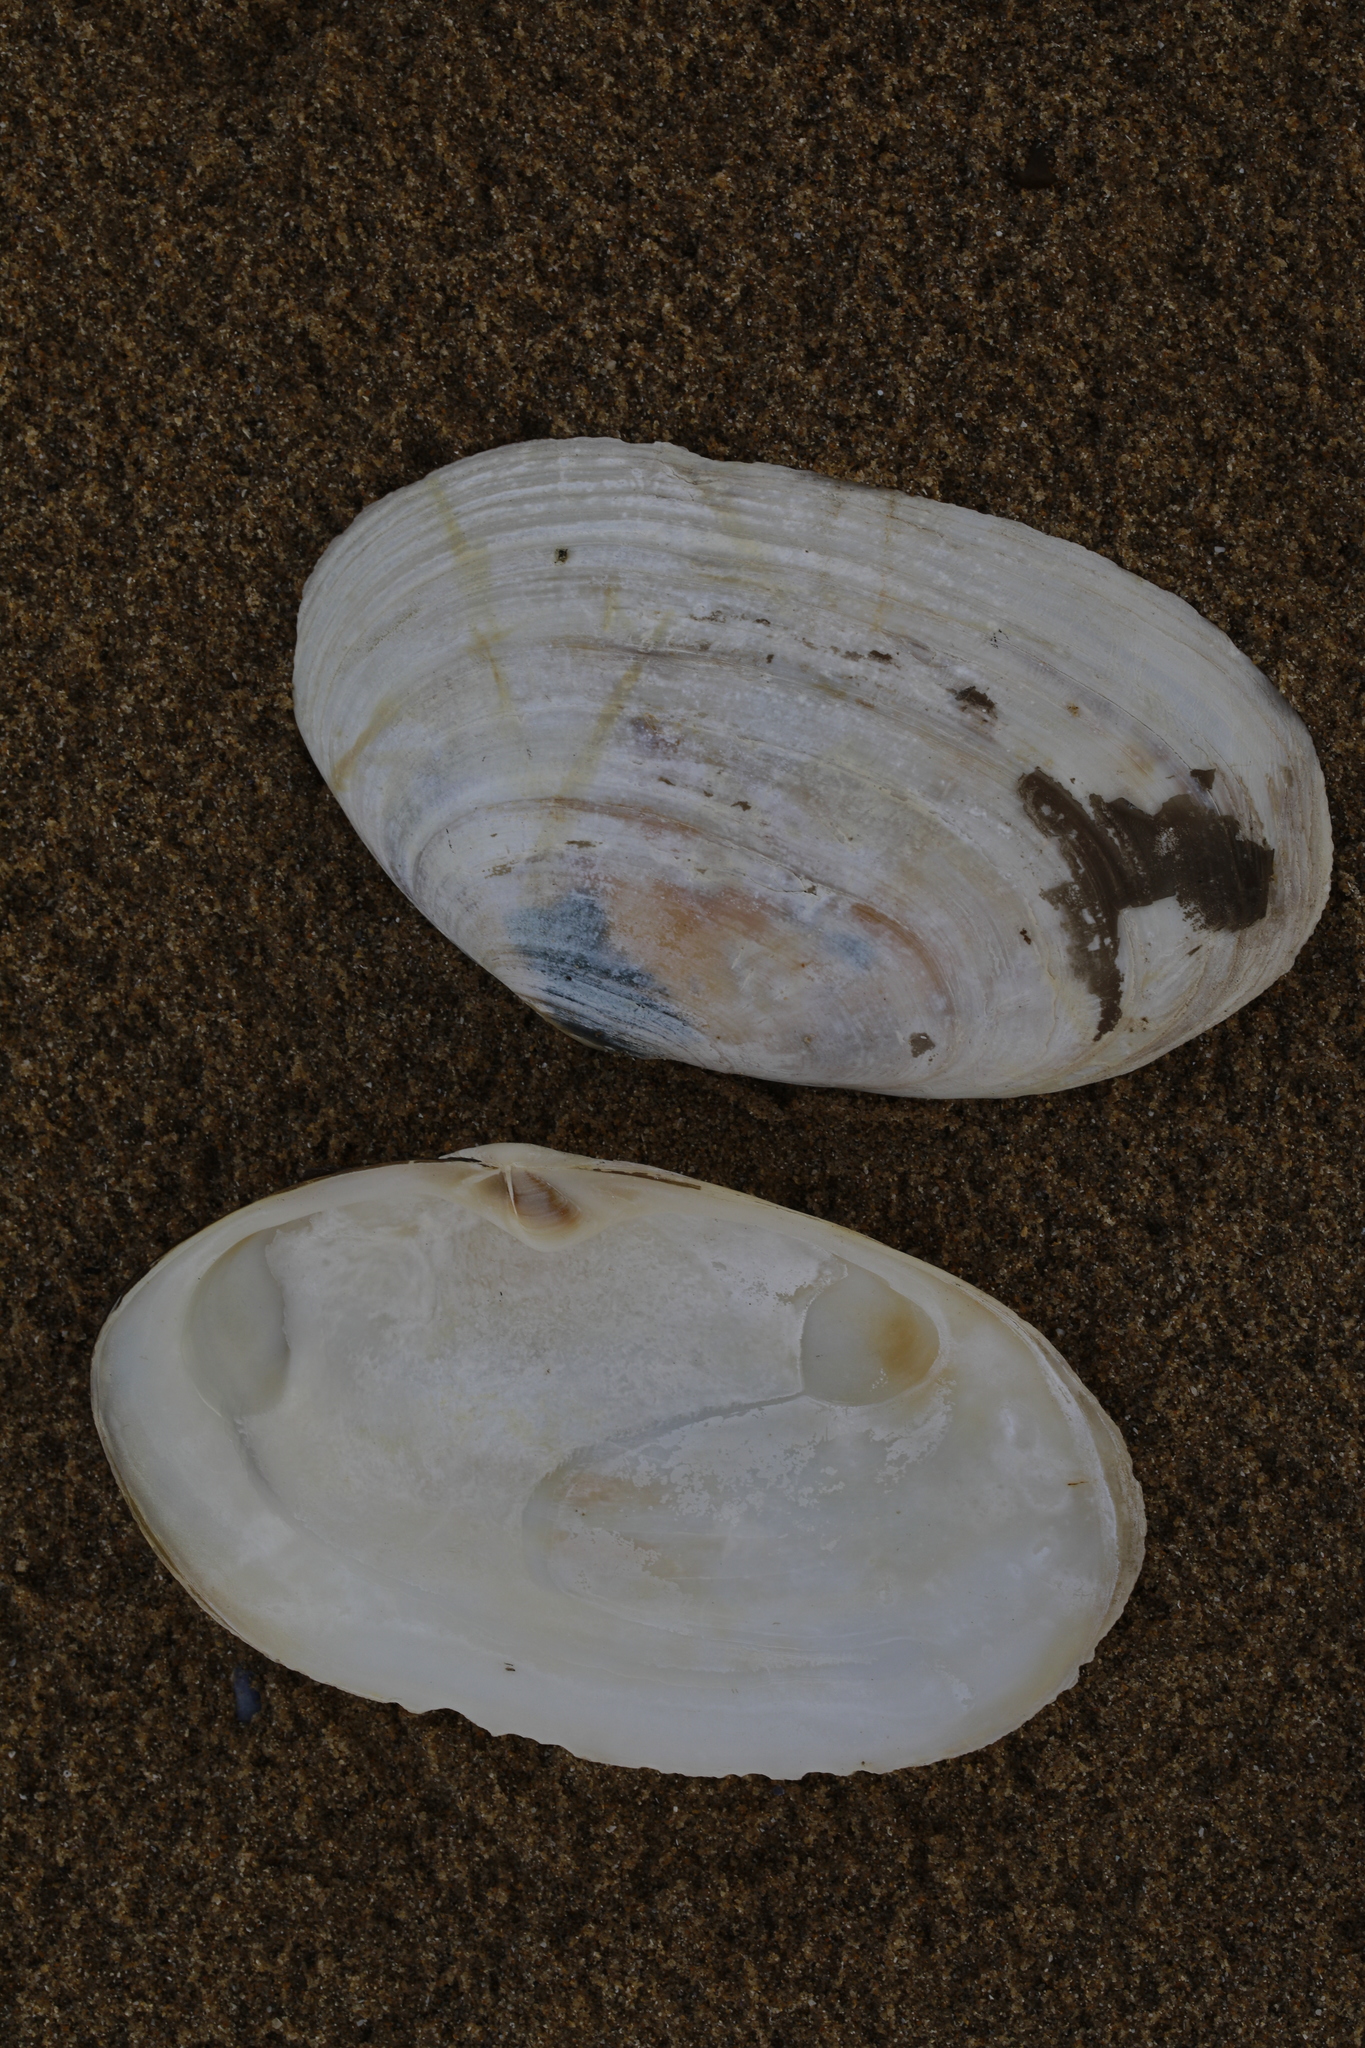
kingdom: Animalia
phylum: Mollusca
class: Bivalvia
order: Venerida
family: Mactridae
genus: Lutraria
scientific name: Lutraria lutraria
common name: Common otter shell
